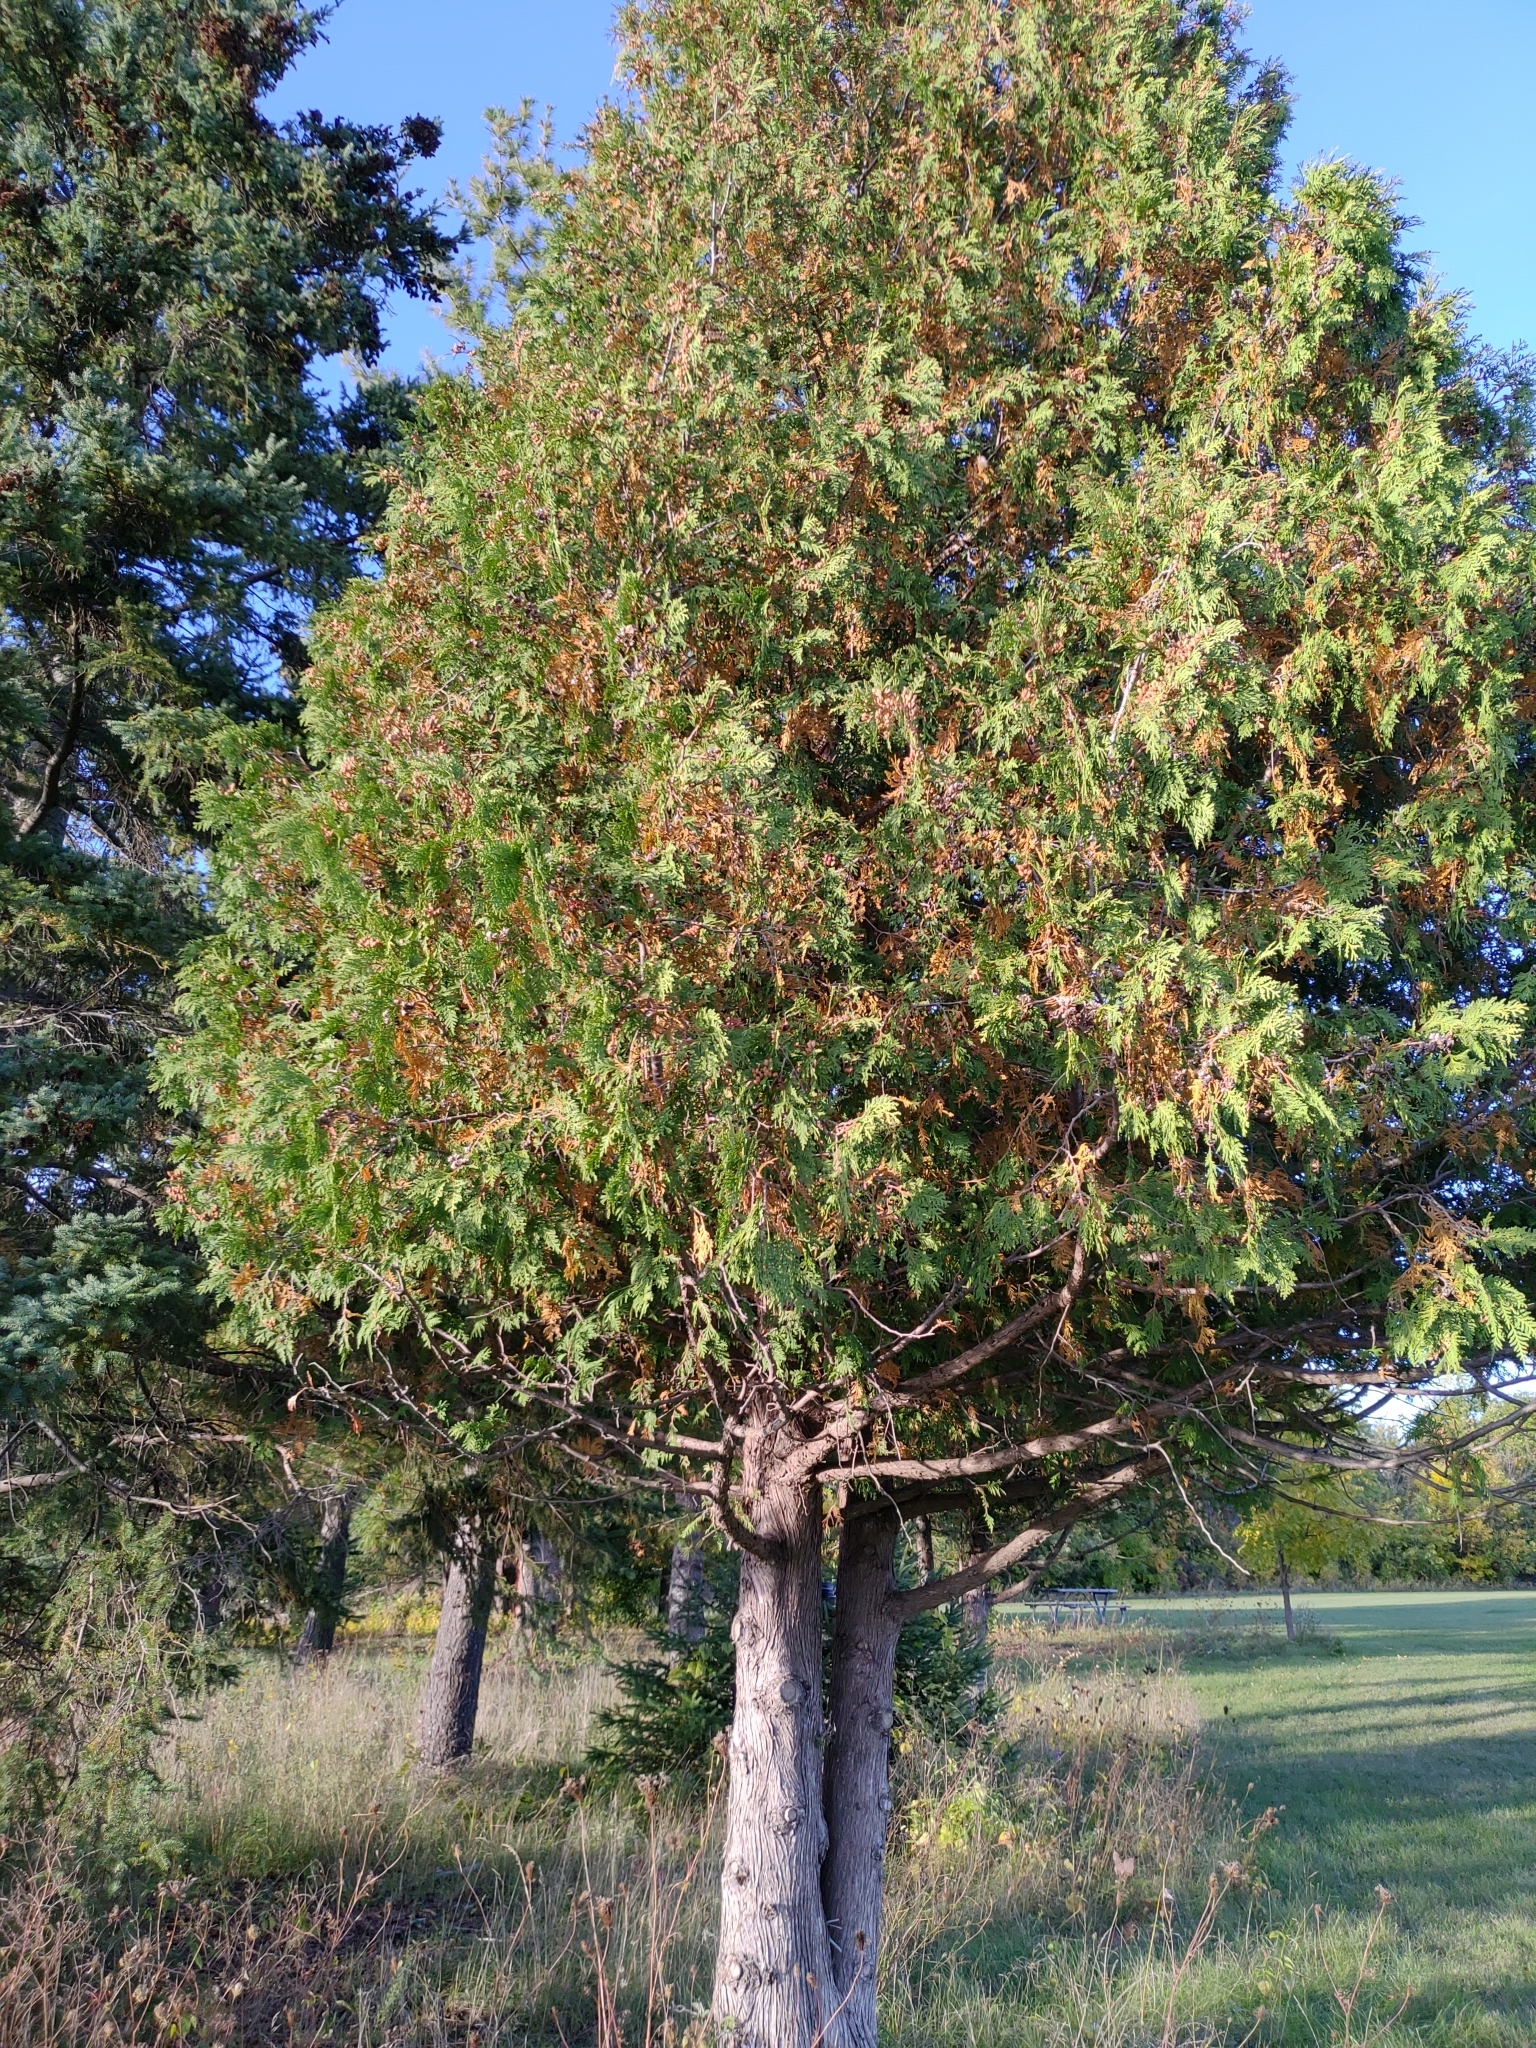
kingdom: Plantae
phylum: Tracheophyta
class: Pinopsida
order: Pinales
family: Cupressaceae
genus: Thuja
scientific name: Thuja occidentalis
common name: Northern white-cedar
